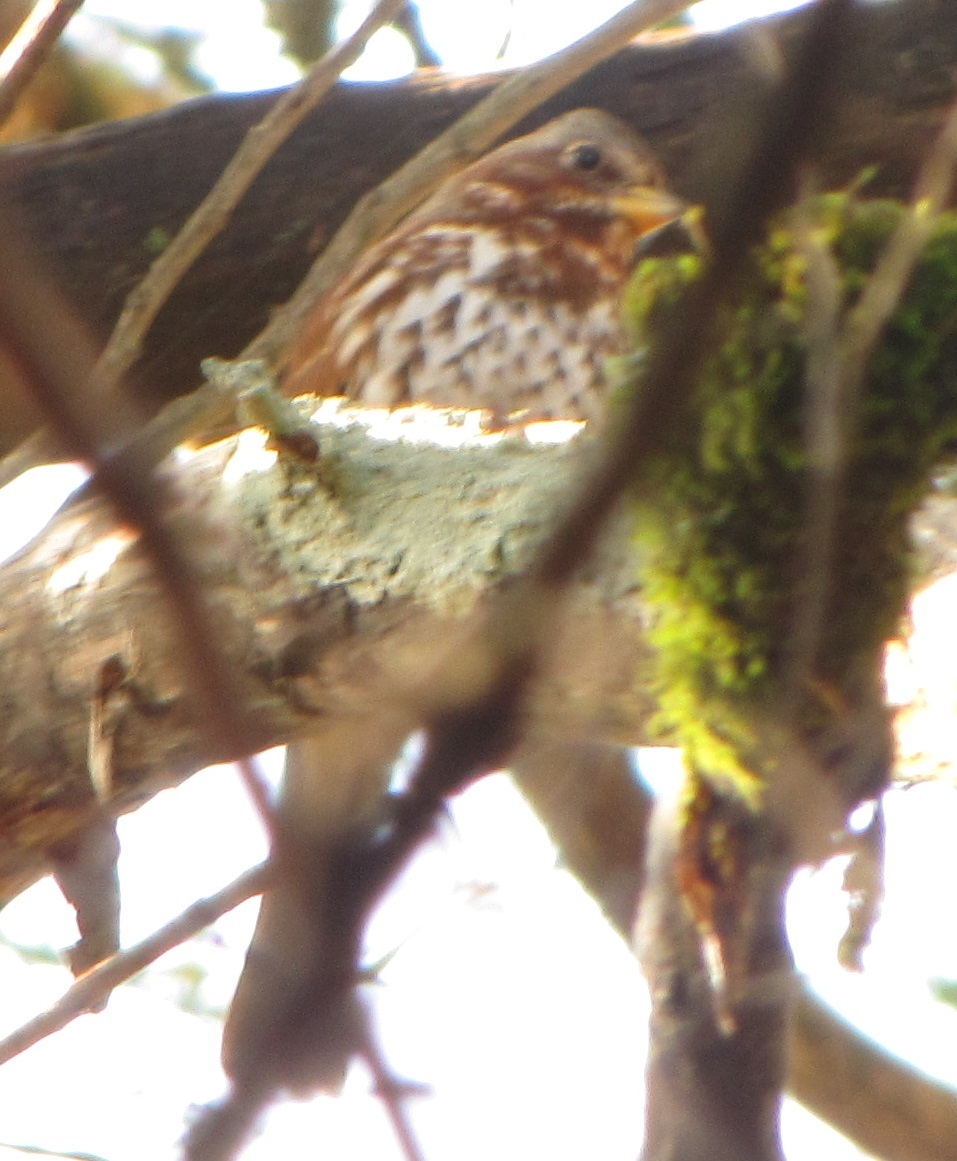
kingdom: Animalia
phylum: Chordata
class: Aves
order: Passeriformes
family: Passerellidae
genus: Passerella
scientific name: Passerella iliaca
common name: Fox sparrow
